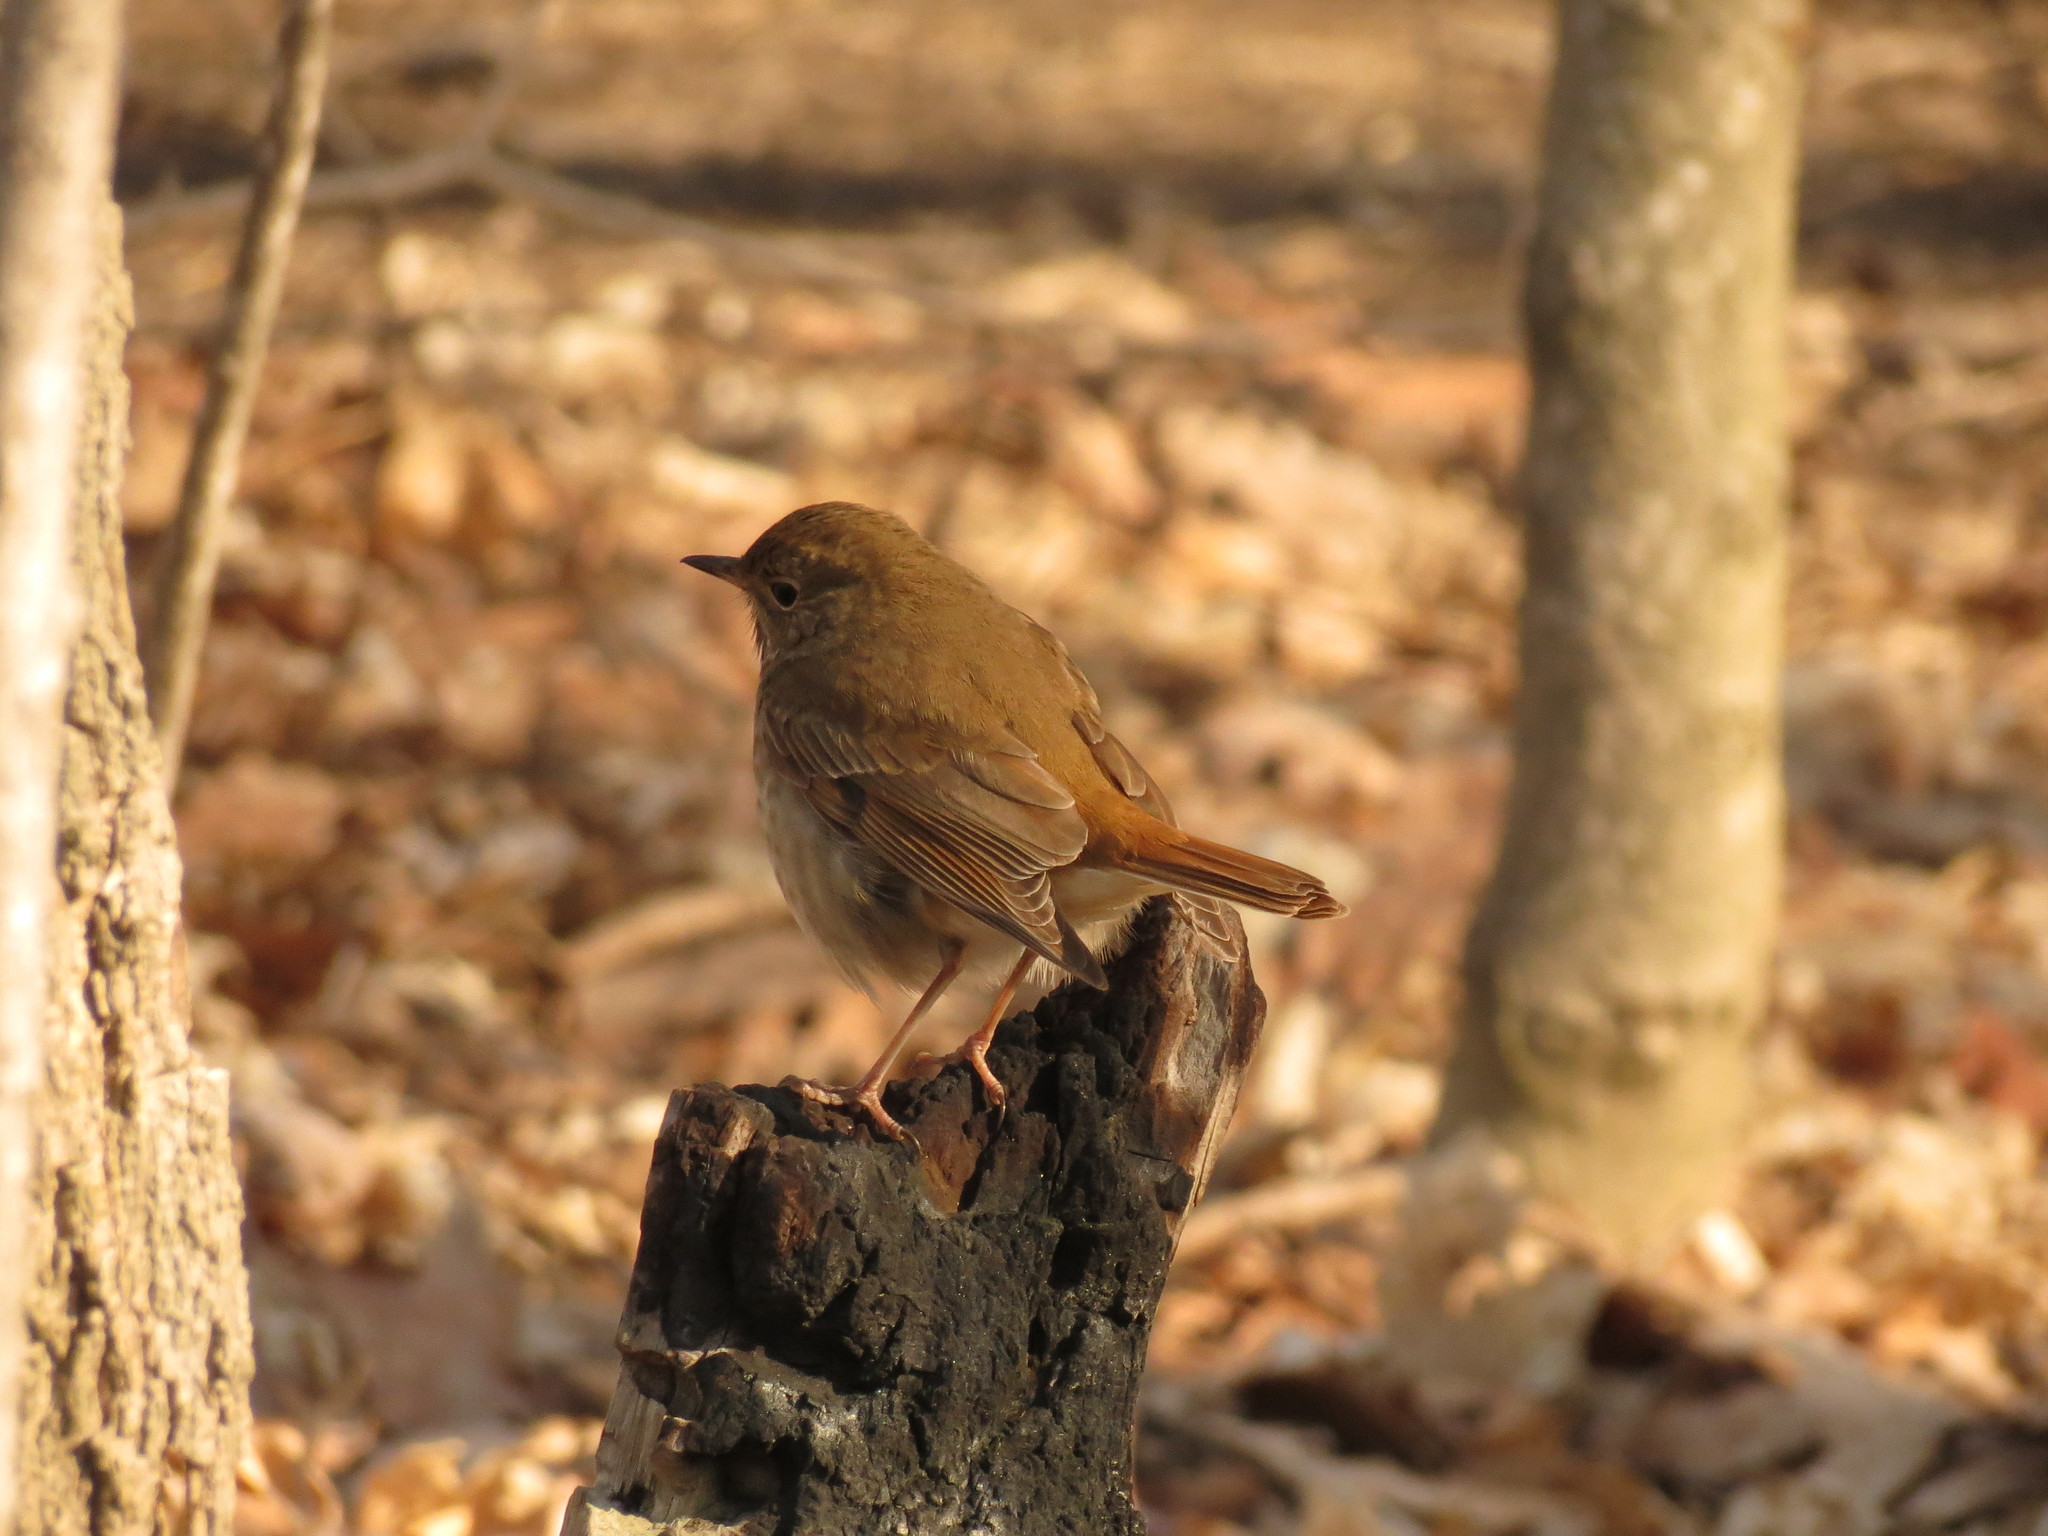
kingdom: Animalia
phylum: Chordata
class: Aves
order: Passeriformes
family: Turdidae
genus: Catharus
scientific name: Catharus guttatus
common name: Hermit thrush
